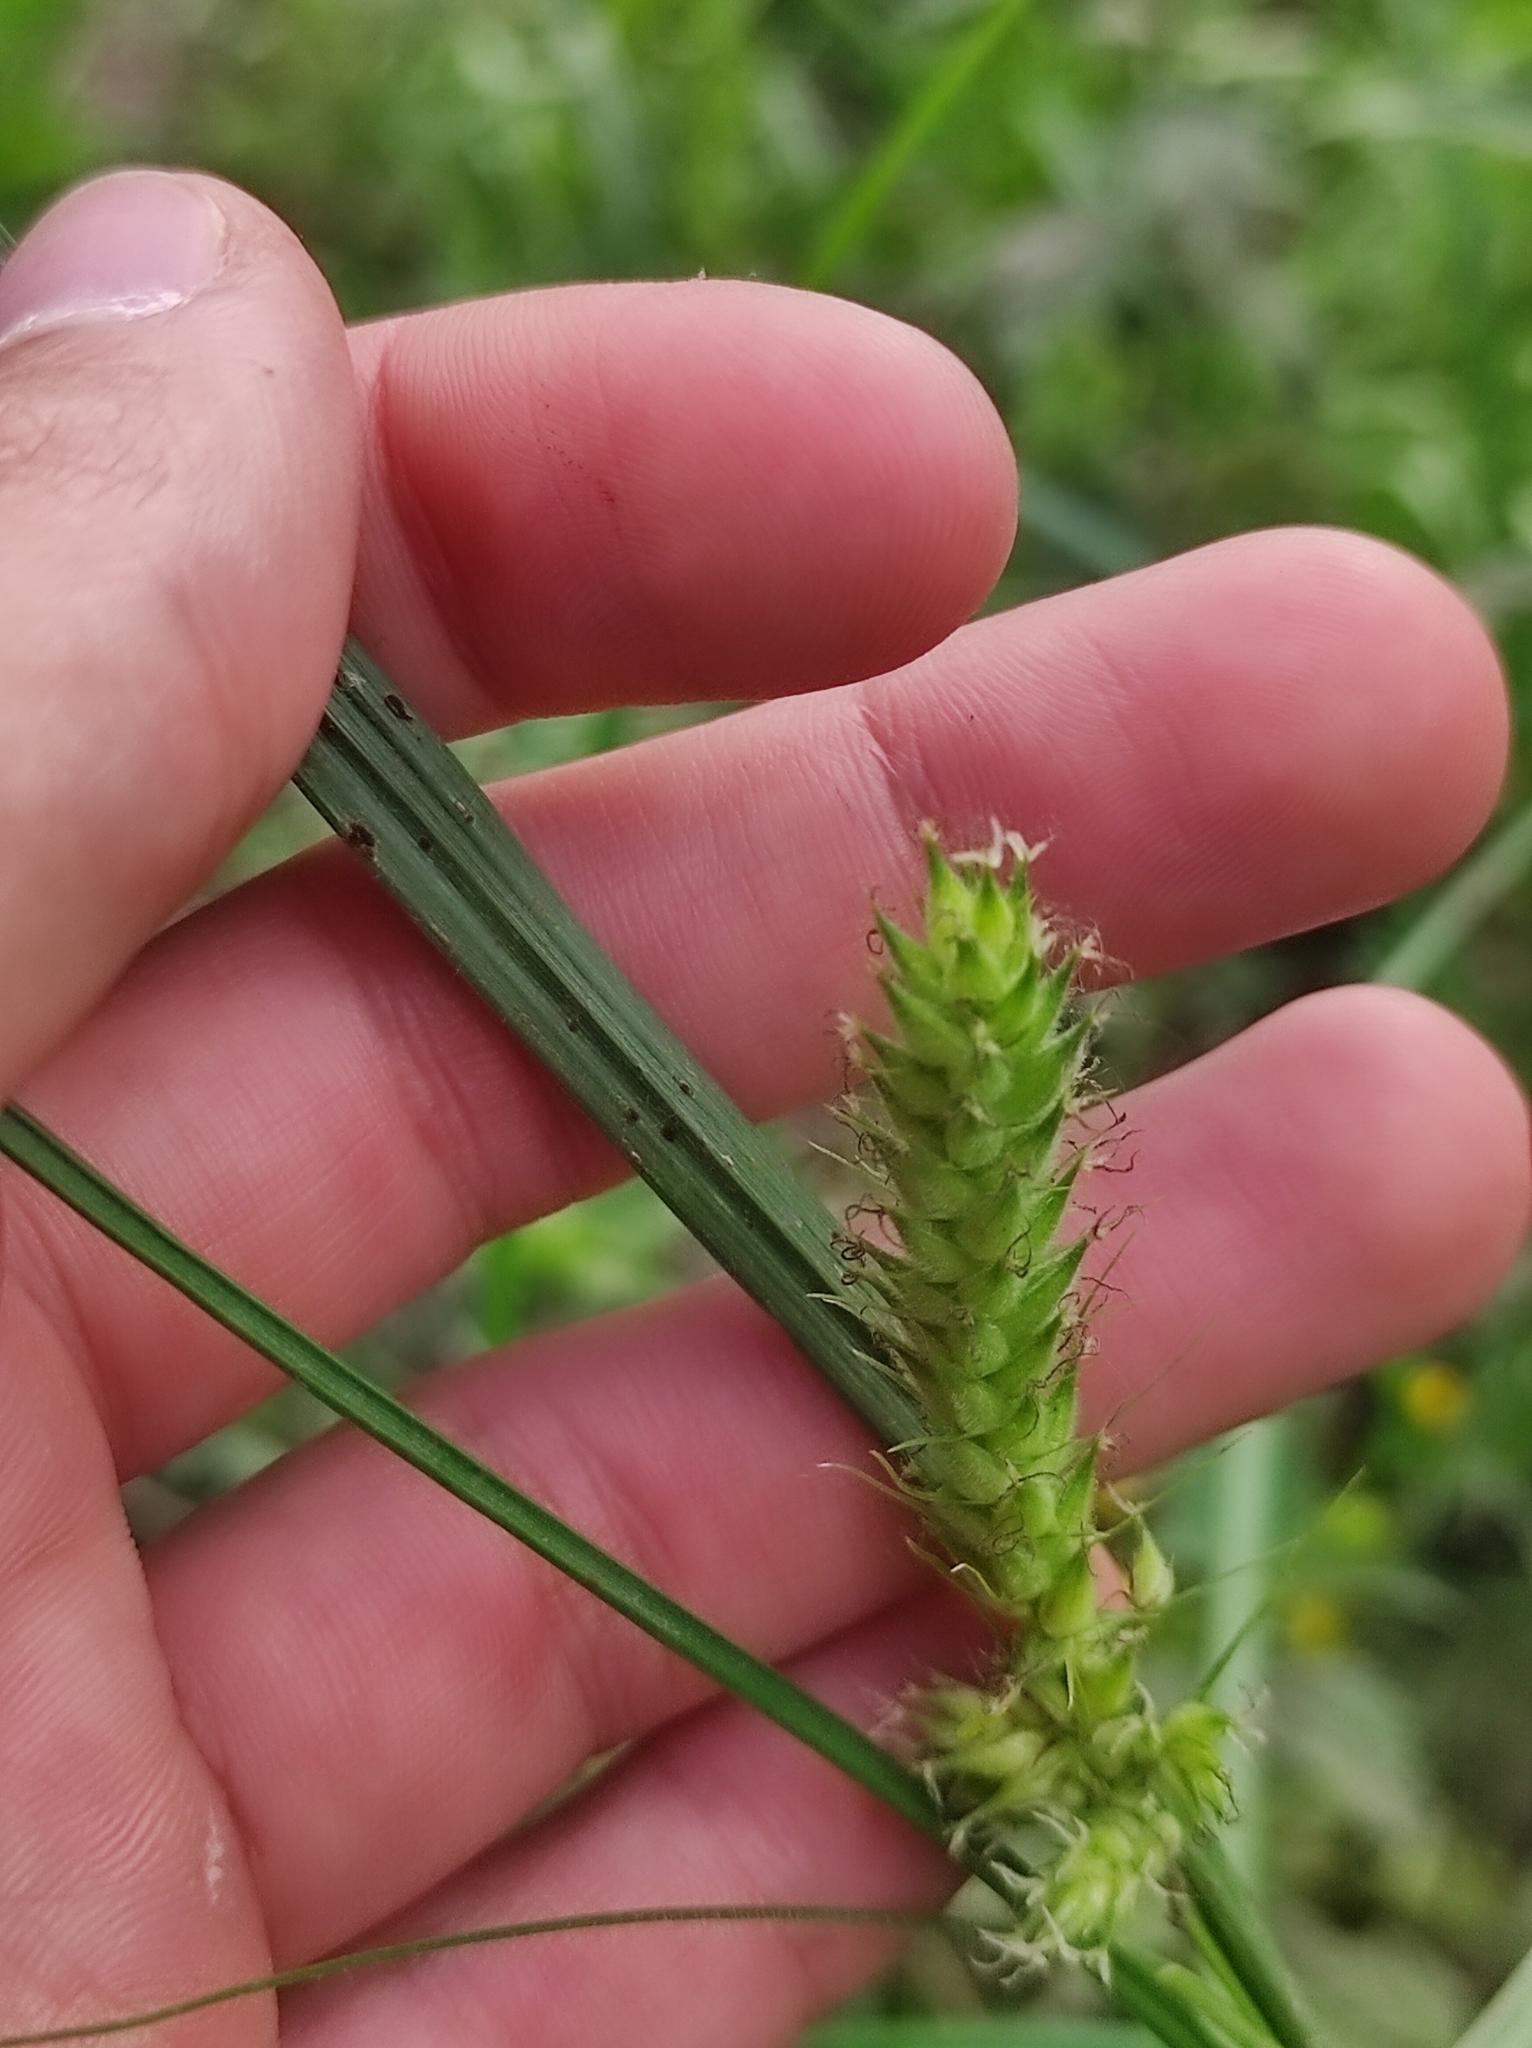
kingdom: Plantae
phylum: Tracheophyta
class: Liliopsida
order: Poales
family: Cyperaceae
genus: Carex
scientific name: Carex hirta
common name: Hairy sedge
